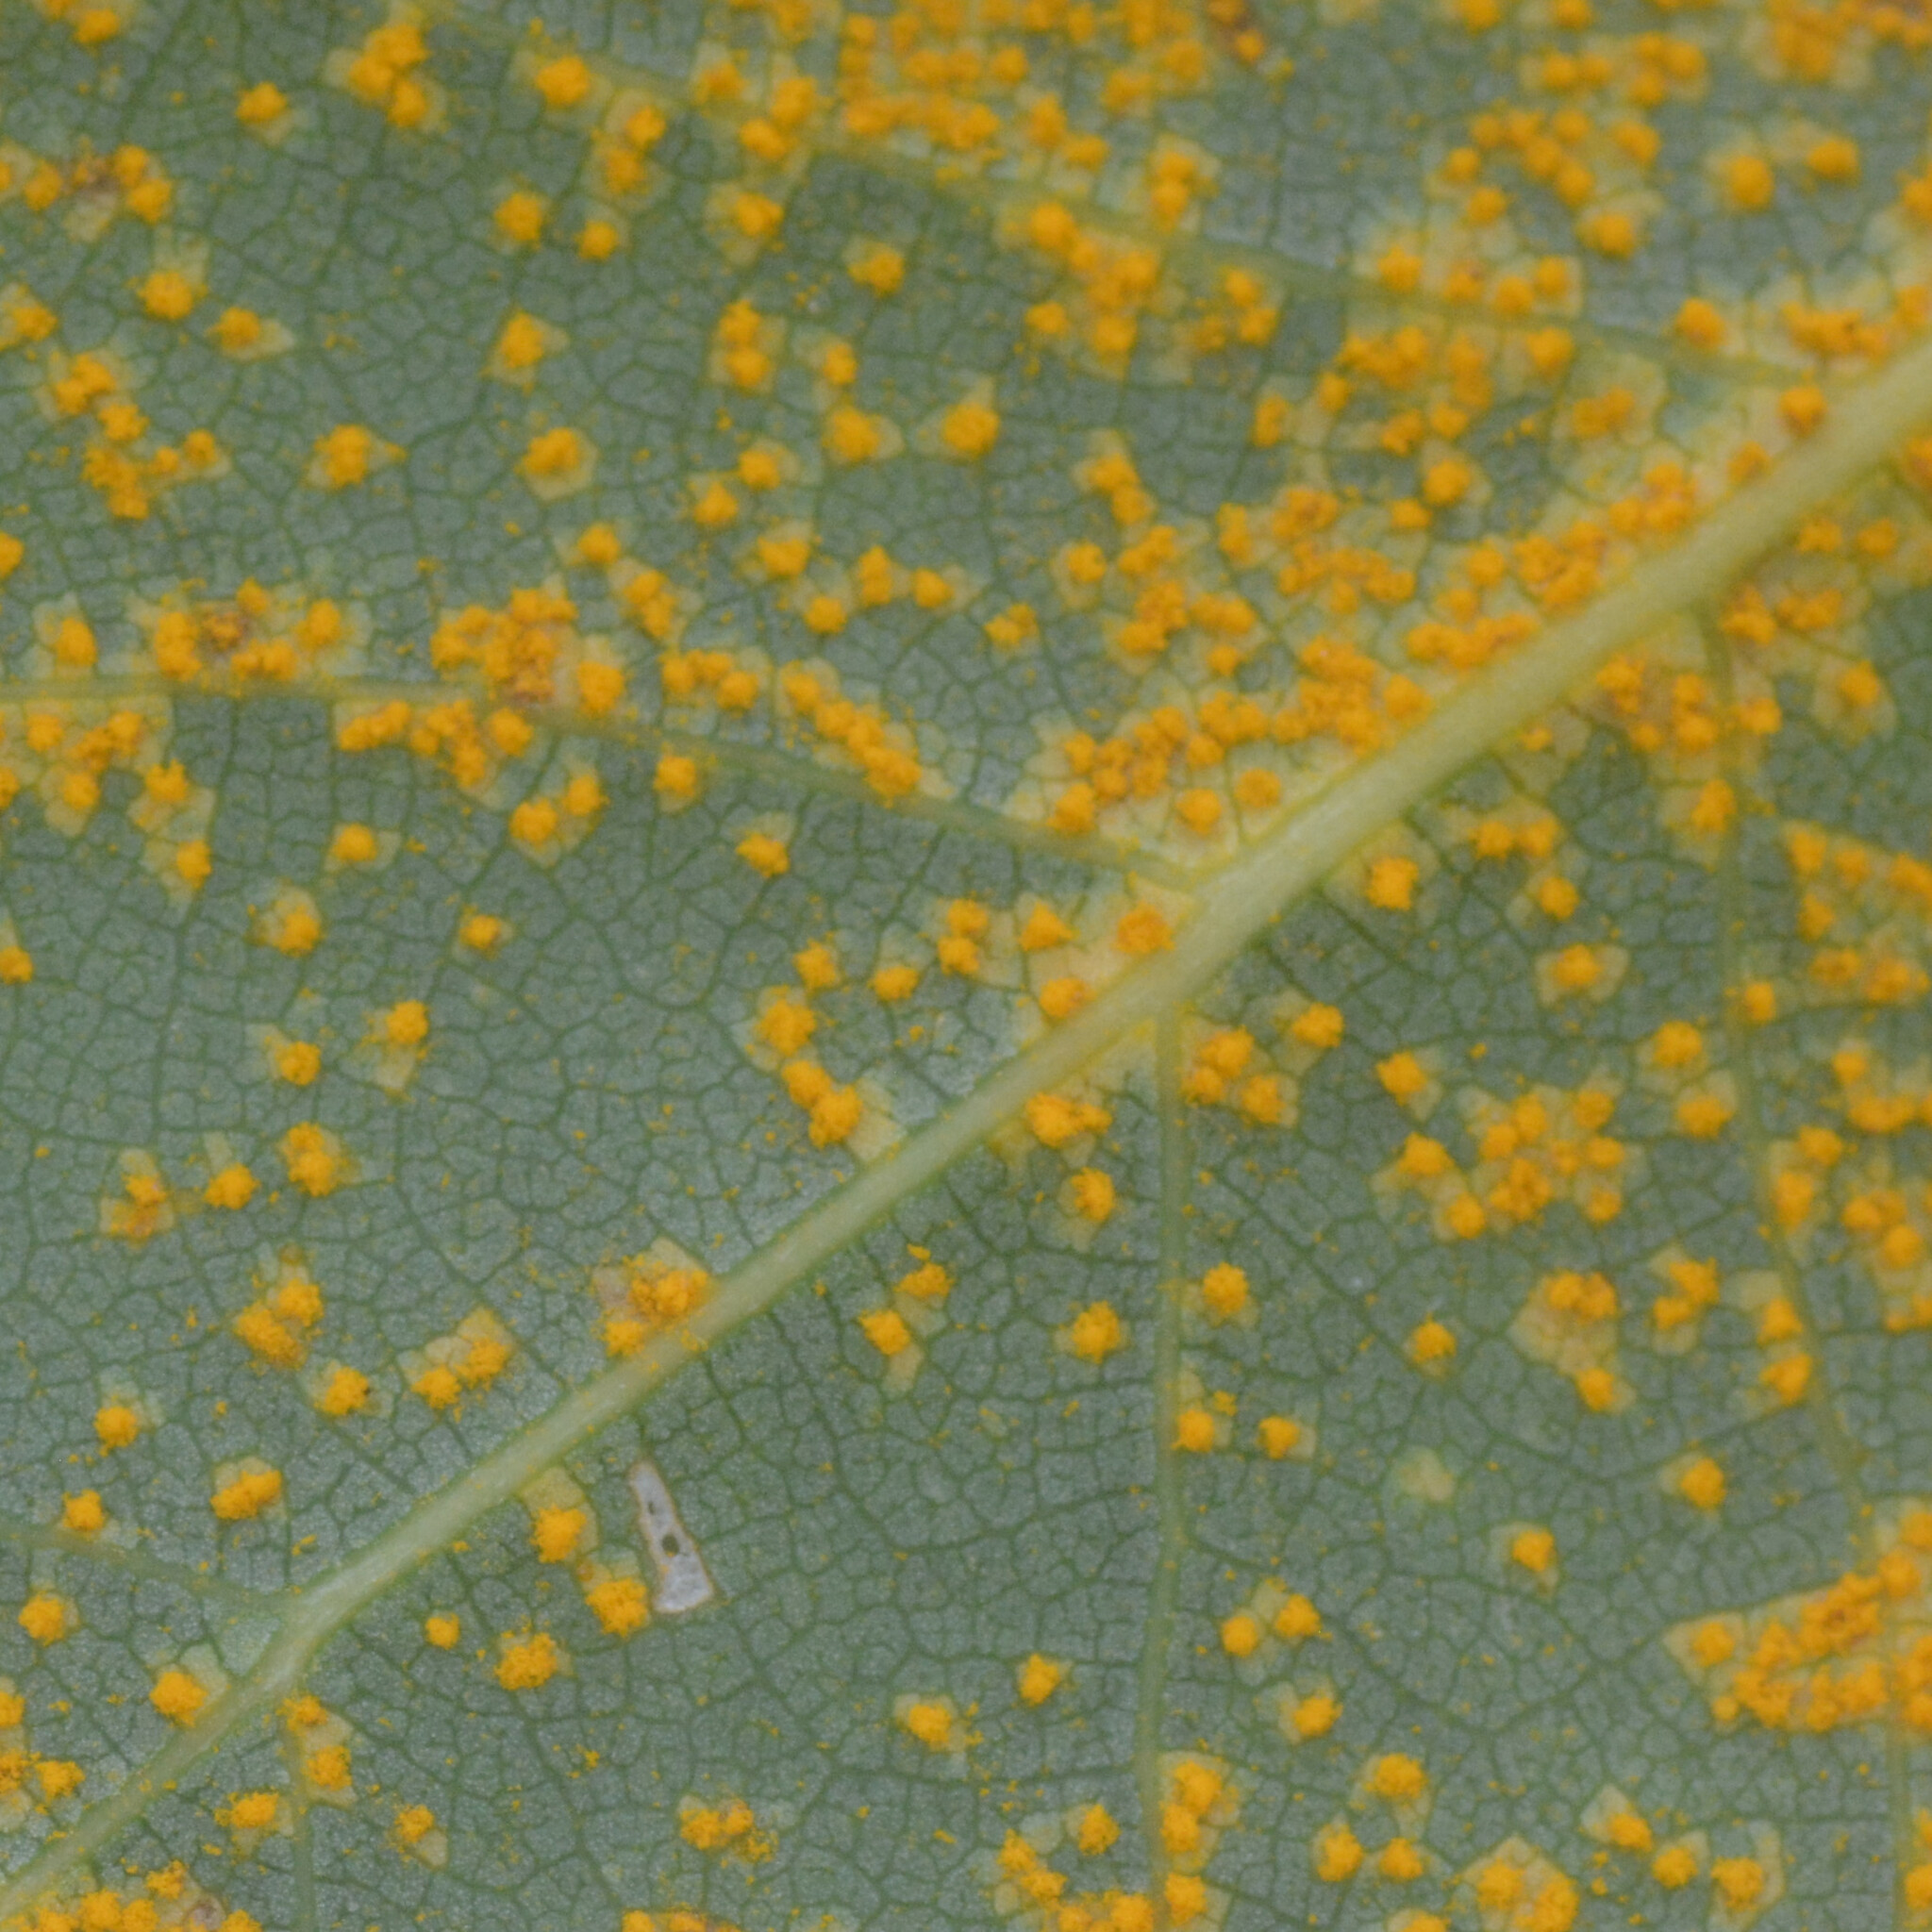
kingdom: Fungi
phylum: Basidiomycota
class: Pucciniomycetes
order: Pucciniales
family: Melampsoraceae
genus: Melampsora
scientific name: Melampsora
